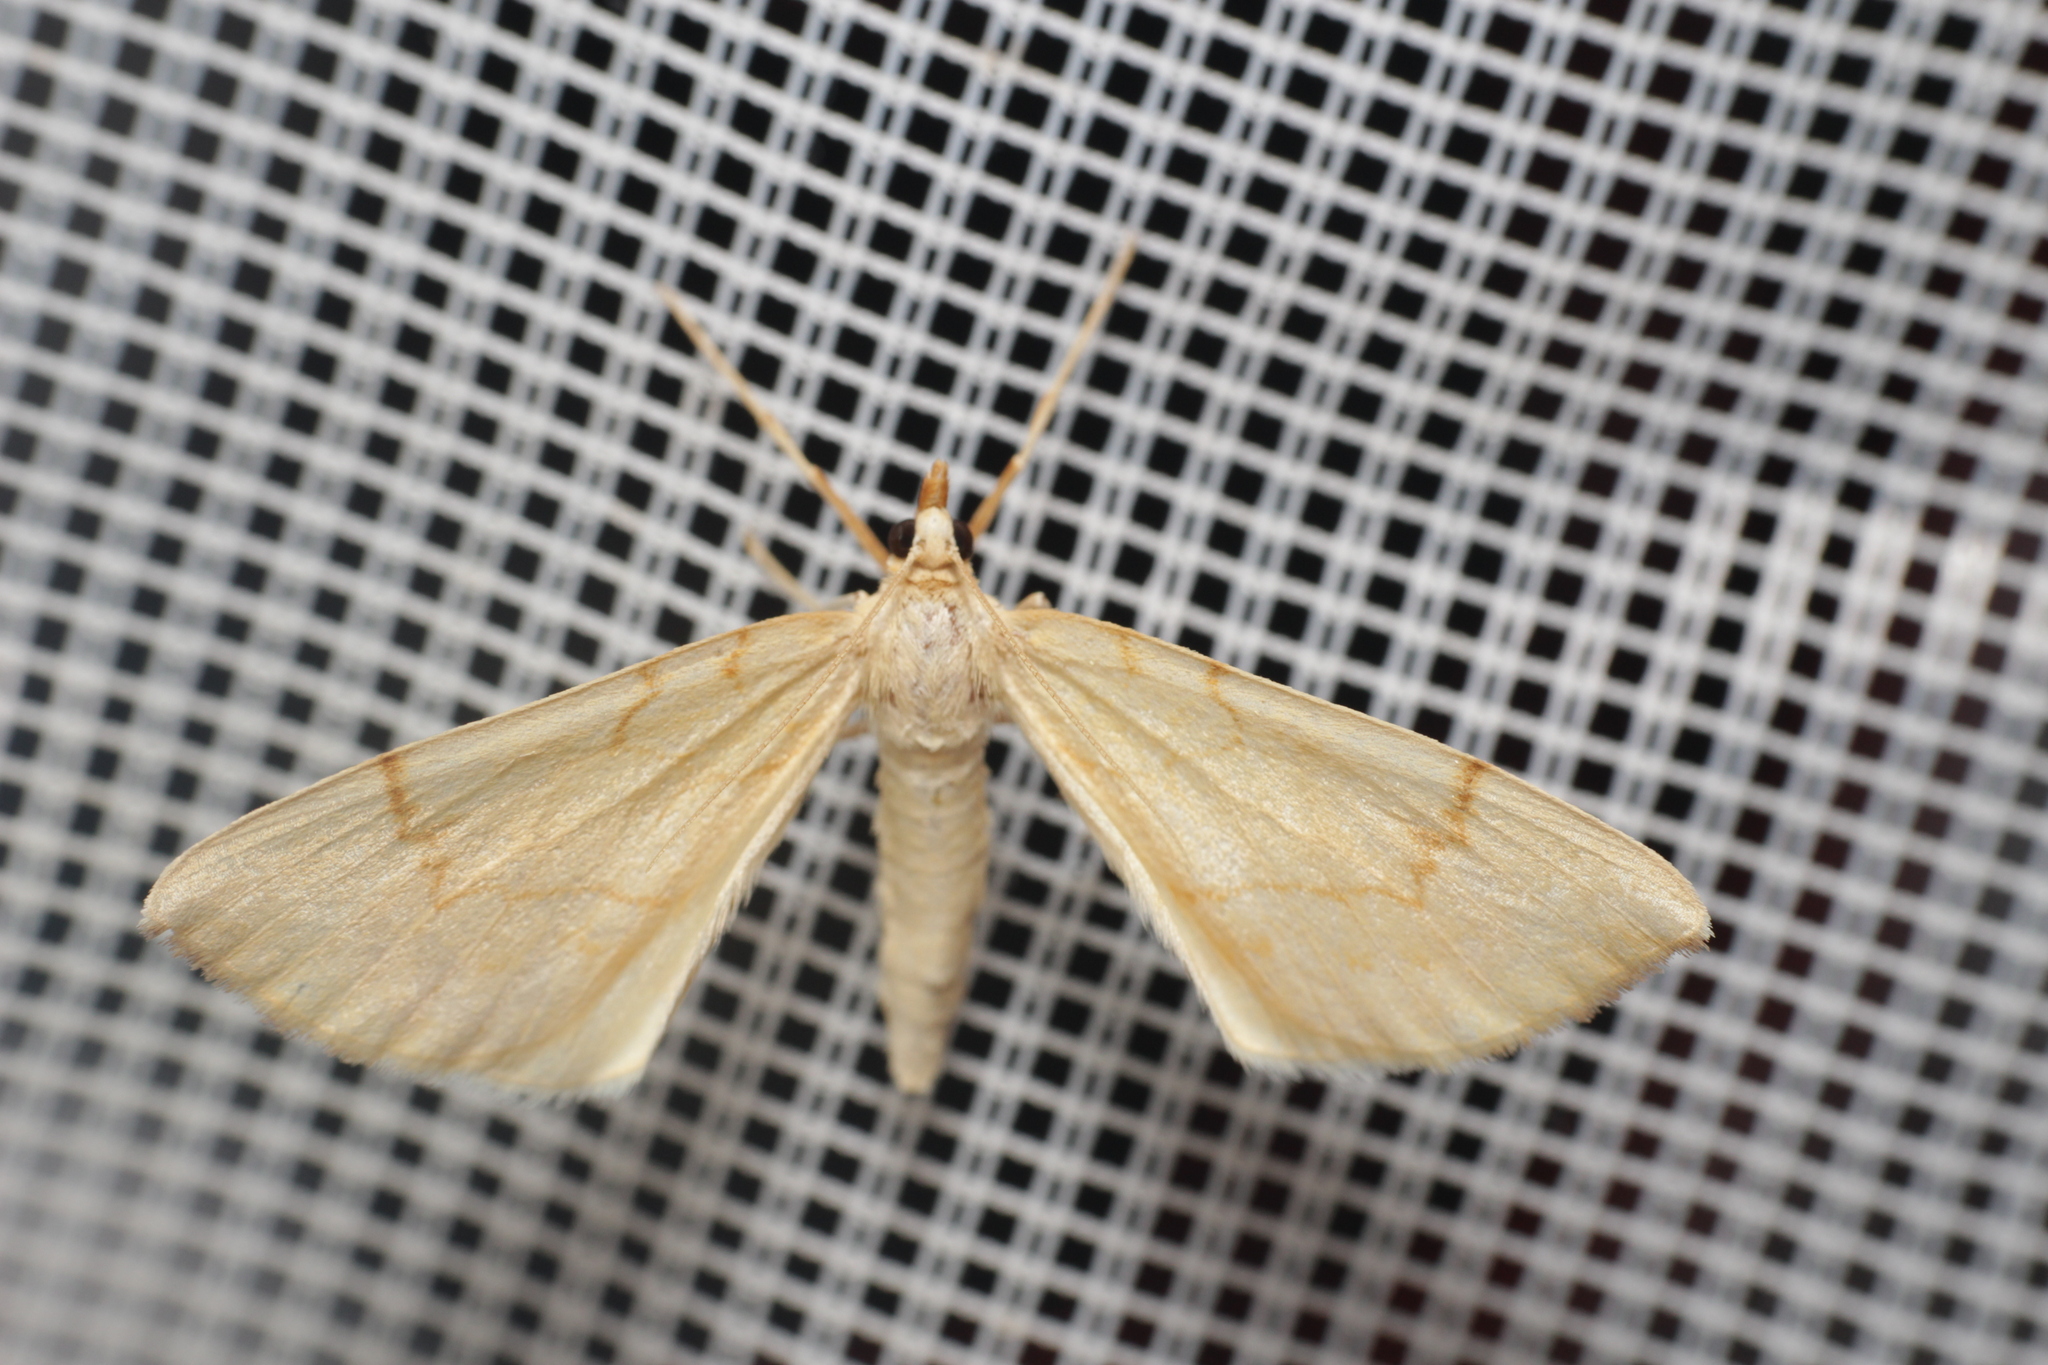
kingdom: Animalia
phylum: Arthropoda
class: Insecta
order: Lepidoptera
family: Geometridae
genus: Eulithis
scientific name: Eulithis pyraliata
